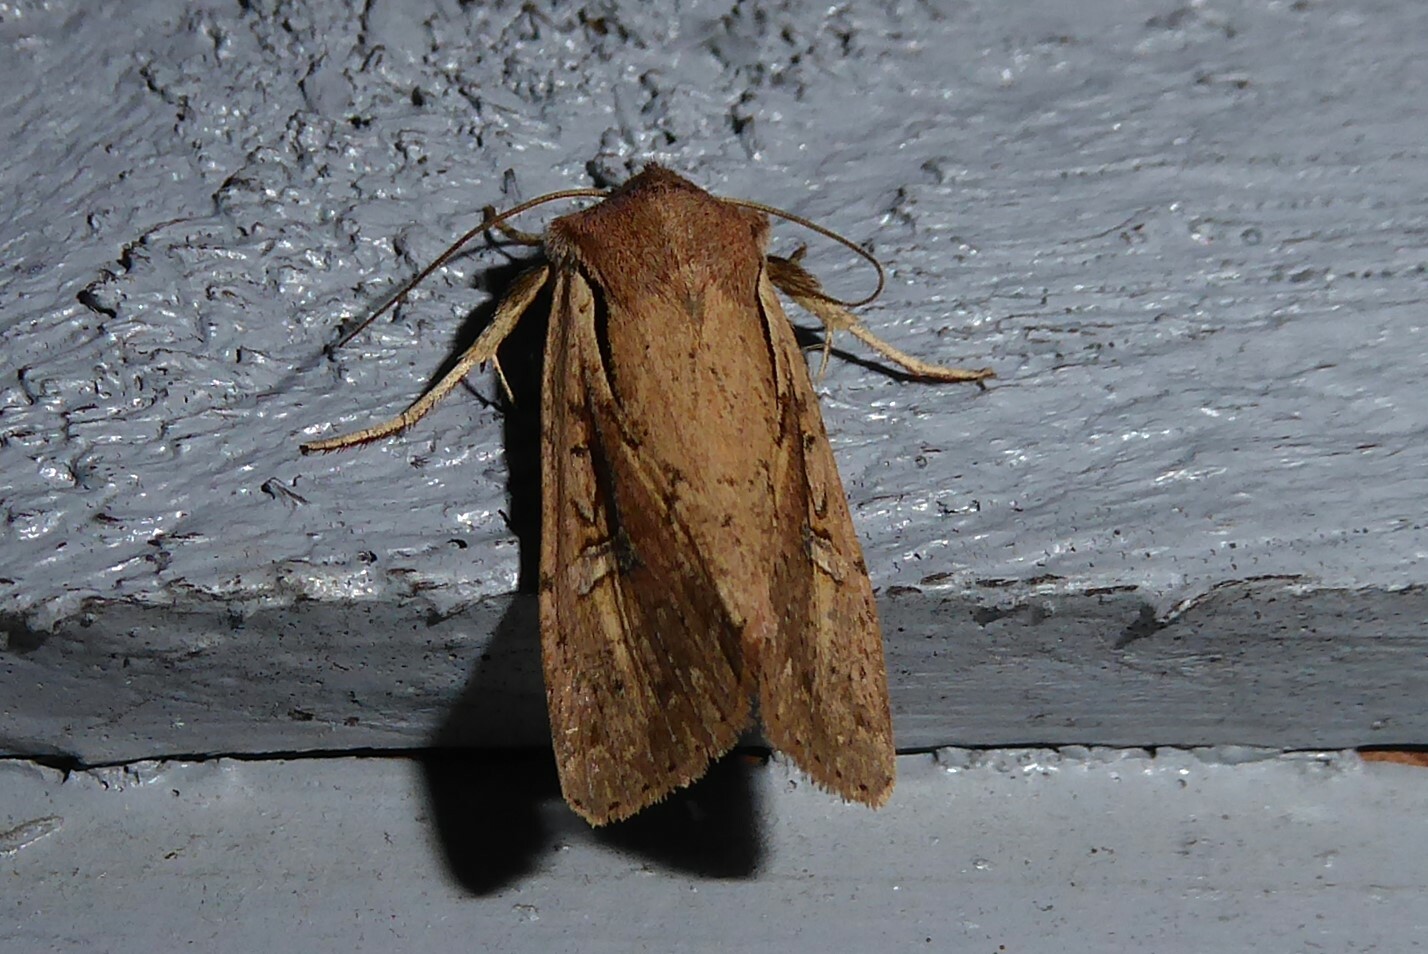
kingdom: Animalia
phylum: Arthropoda
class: Insecta
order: Lepidoptera
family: Noctuidae
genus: Ichneutica
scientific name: Ichneutica atristriga
